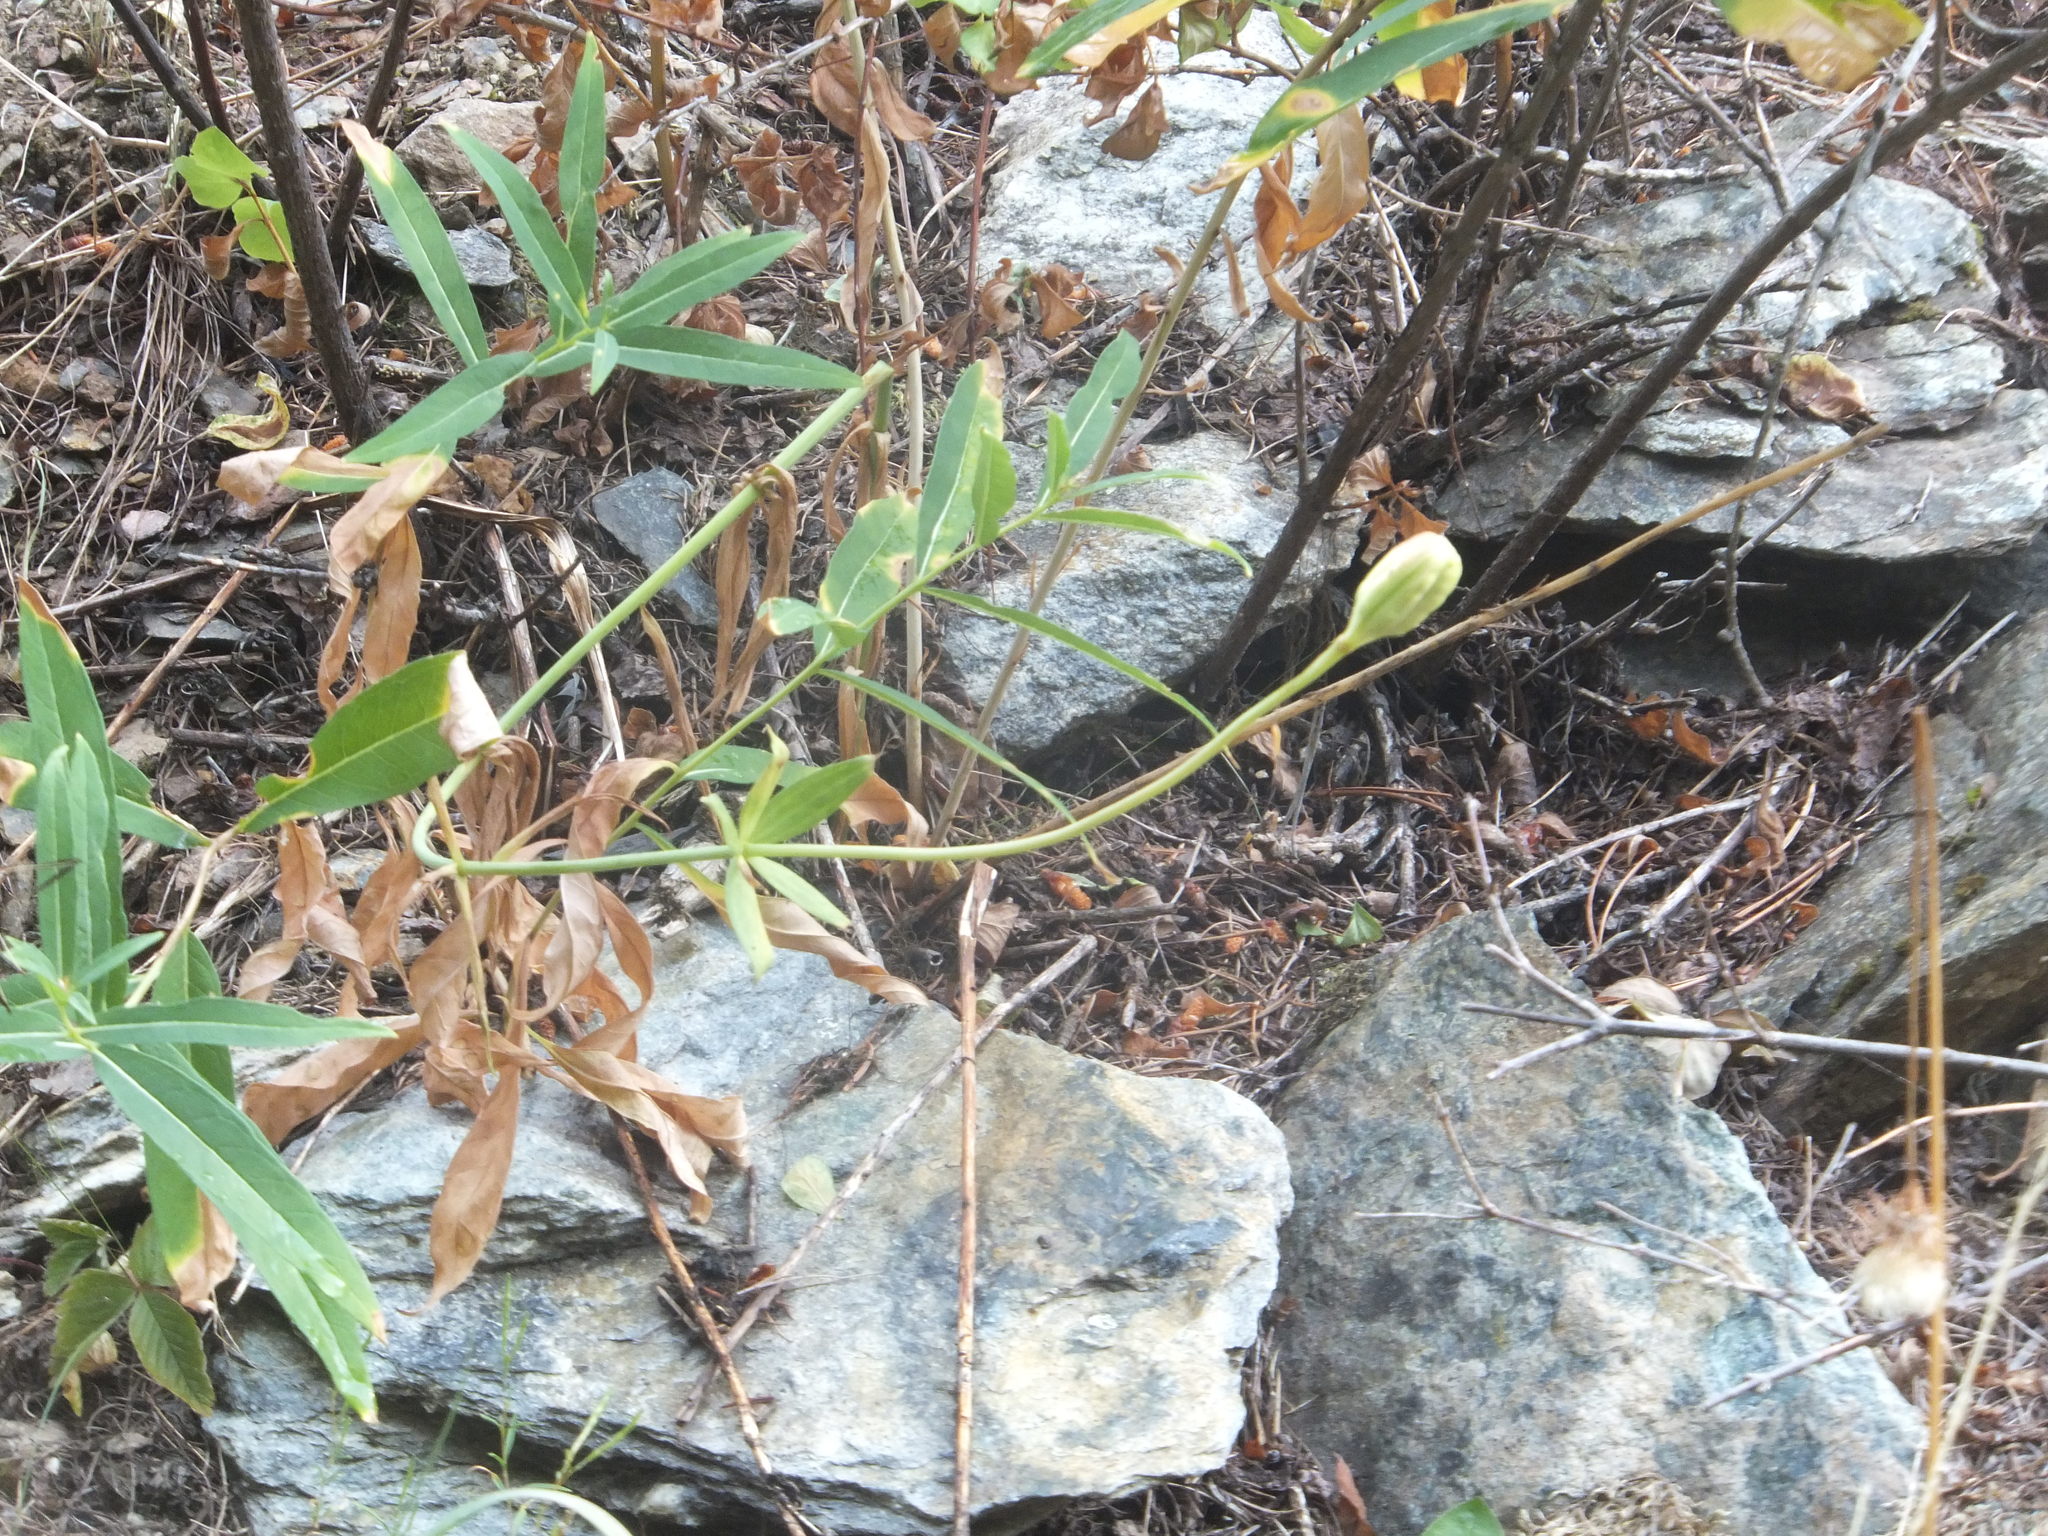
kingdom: Plantae
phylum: Tracheophyta
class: Liliopsida
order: Liliales
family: Liliaceae
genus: Lilium
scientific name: Lilium columbianum
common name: Columbia lily
